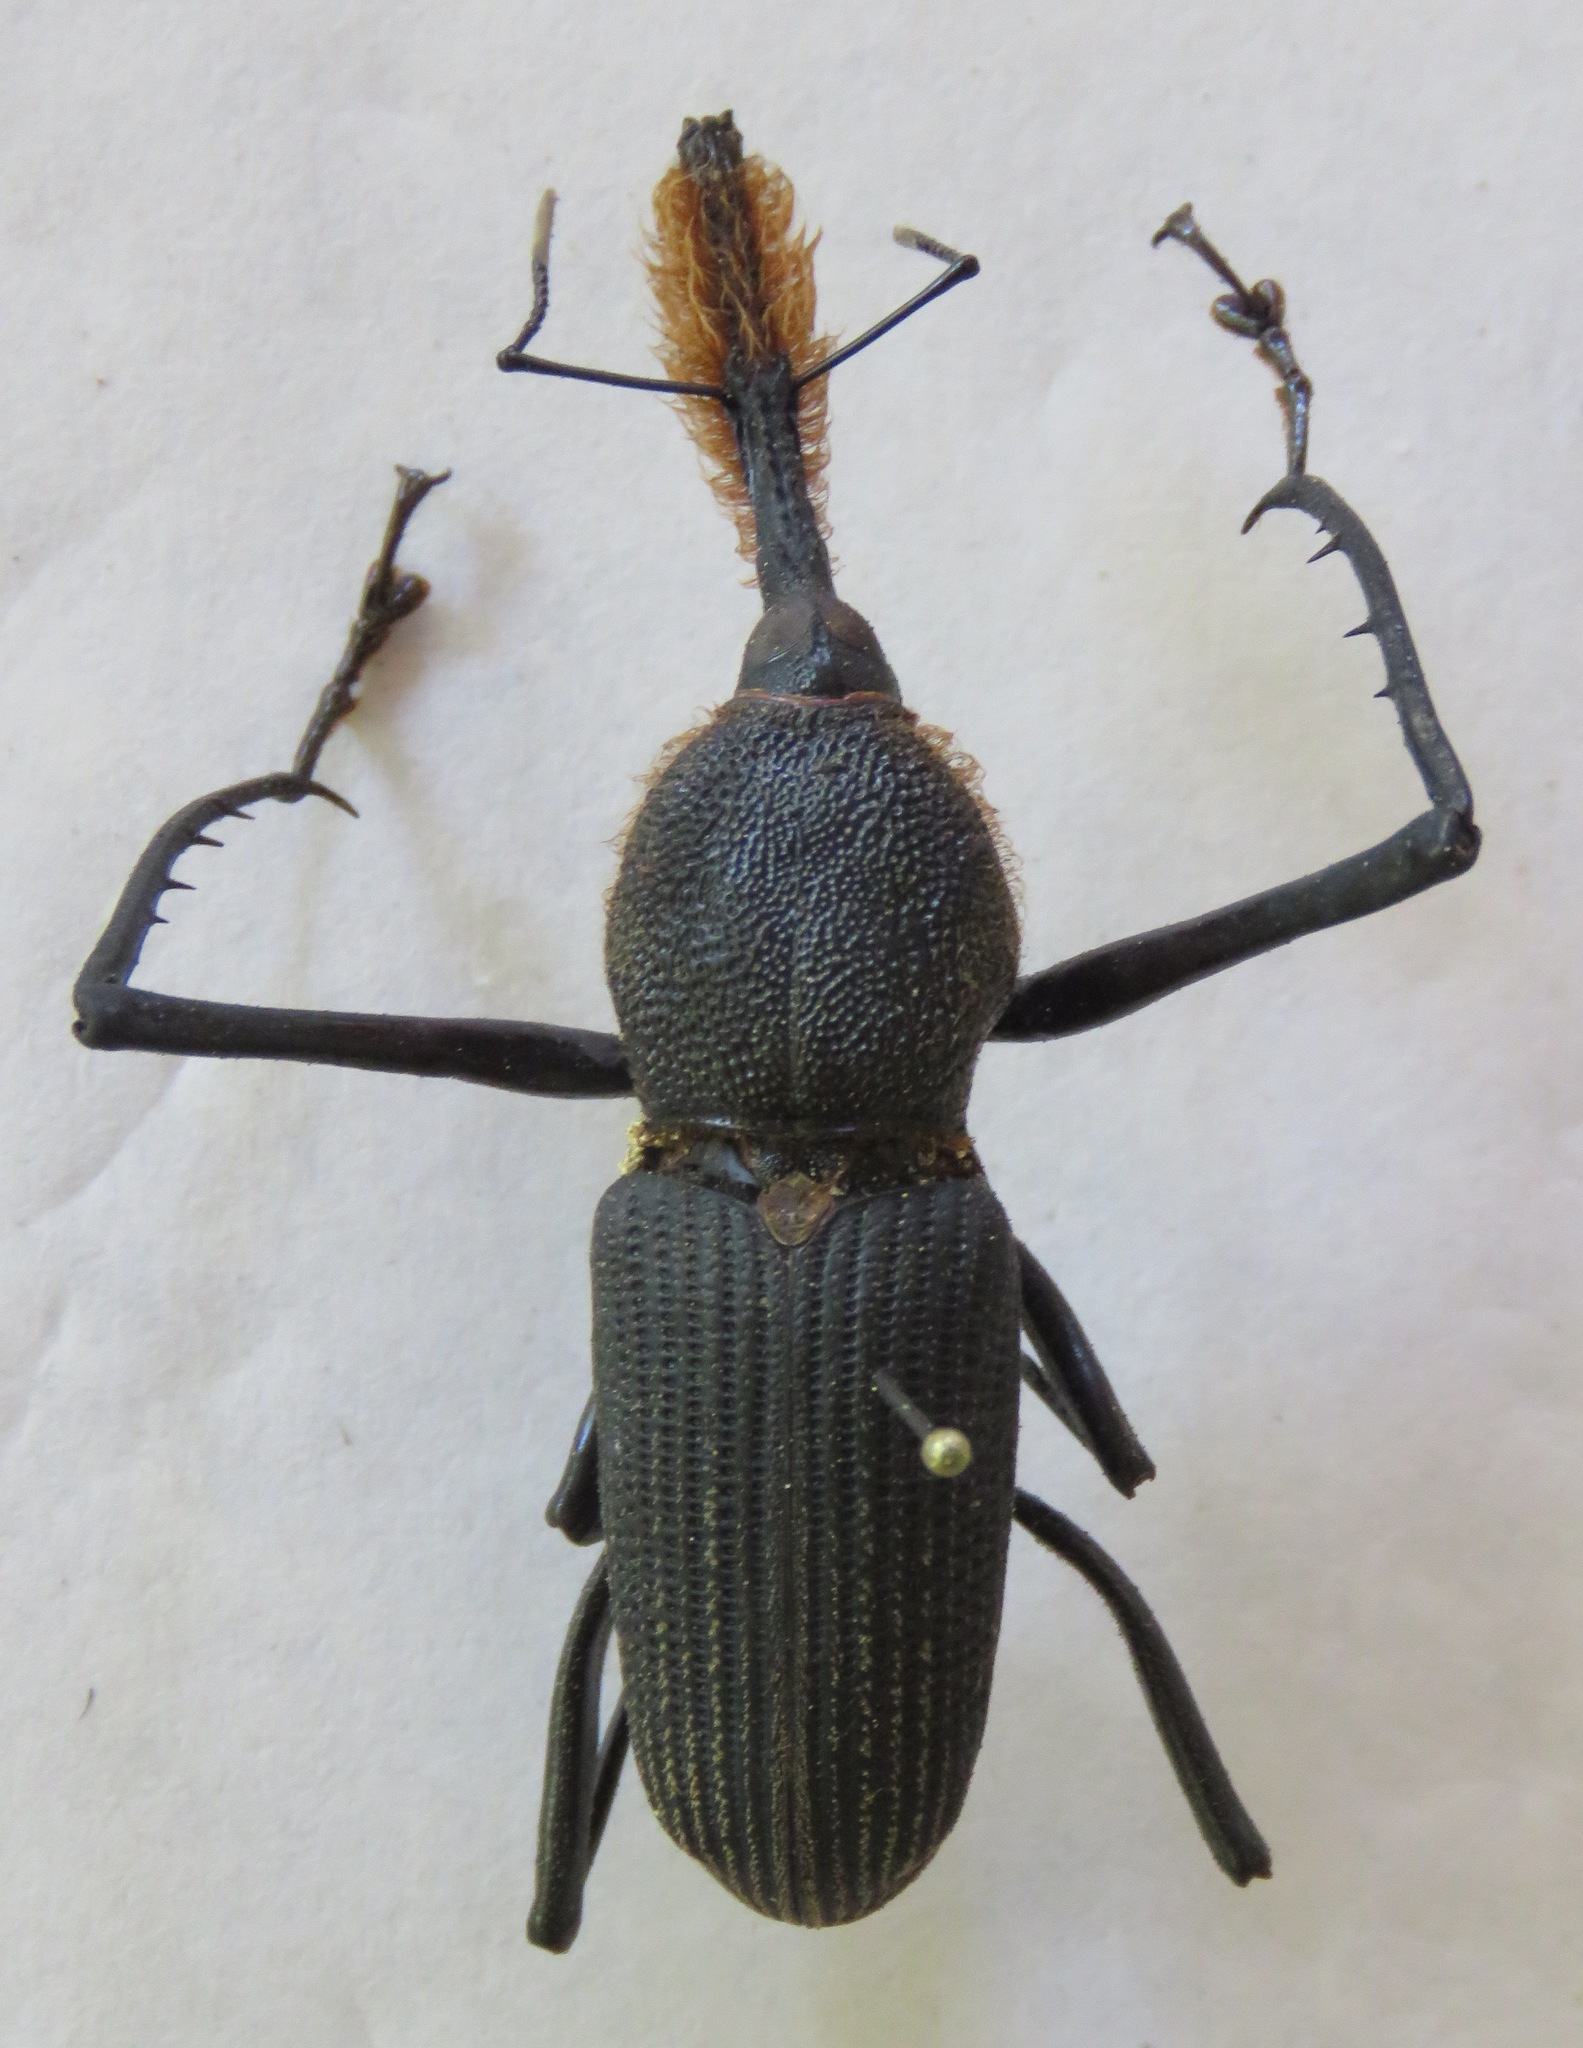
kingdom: Animalia
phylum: Arthropoda
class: Insecta
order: Coleoptera
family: Dryophthoridae
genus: Rhinostomus
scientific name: Rhinostomus barbirostris
